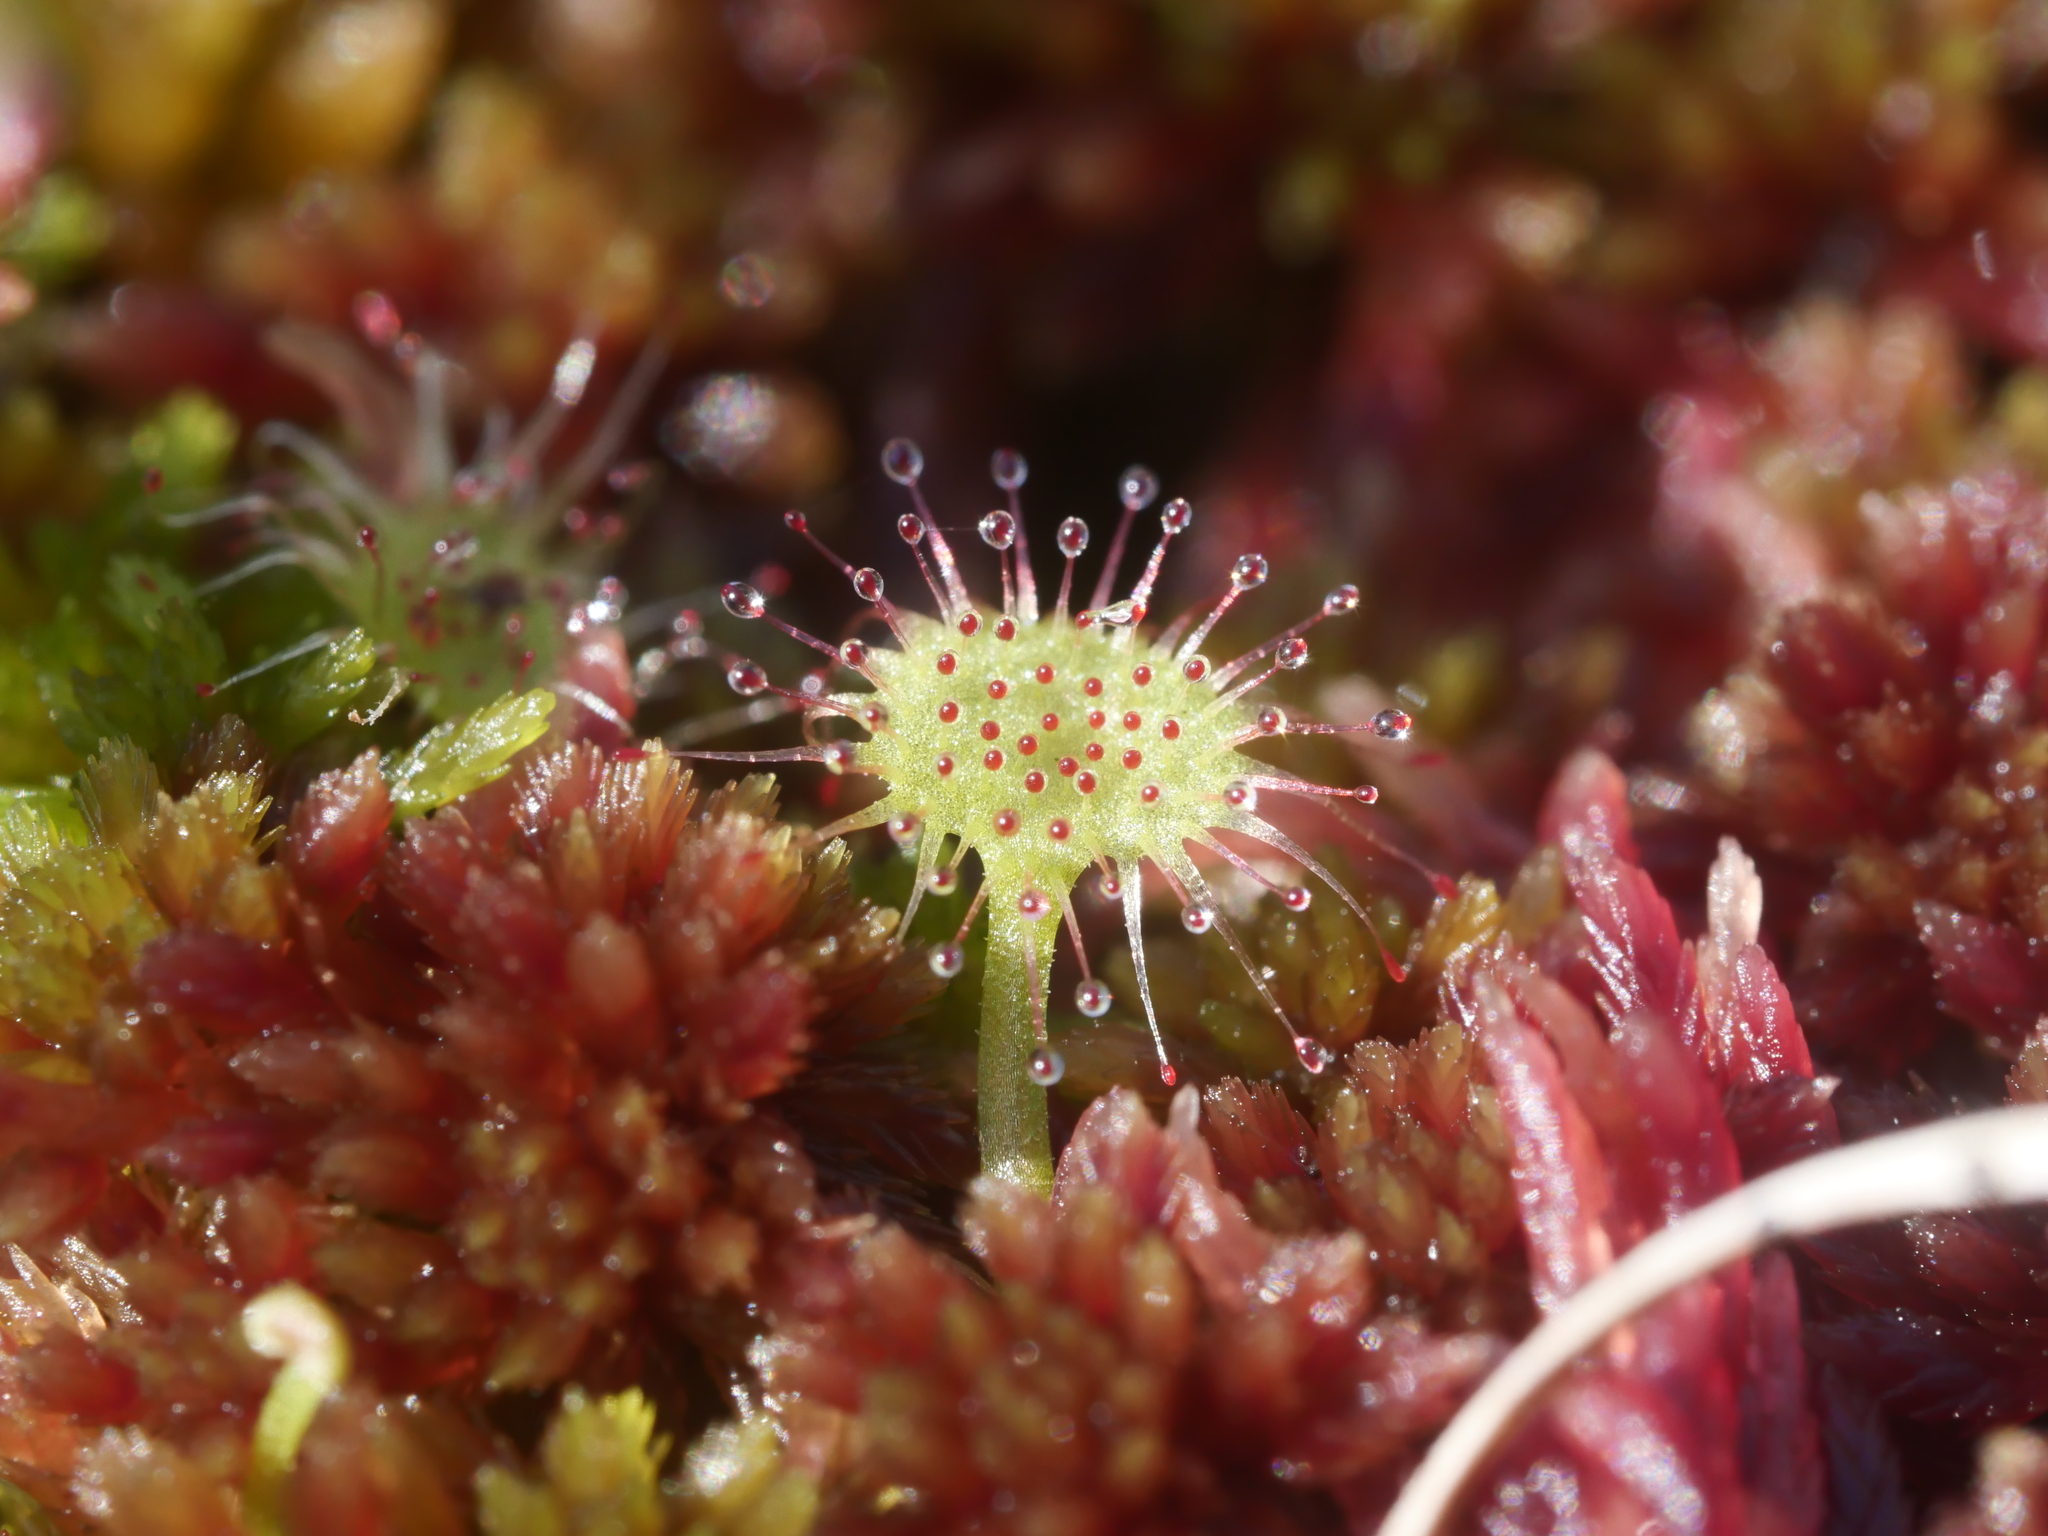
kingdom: Plantae
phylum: Tracheophyta
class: Magnoliopsida
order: Caryophyllales
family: Droseraceae
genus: Drosera
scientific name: Drosera rotundifolia
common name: Round-leaved sundew
